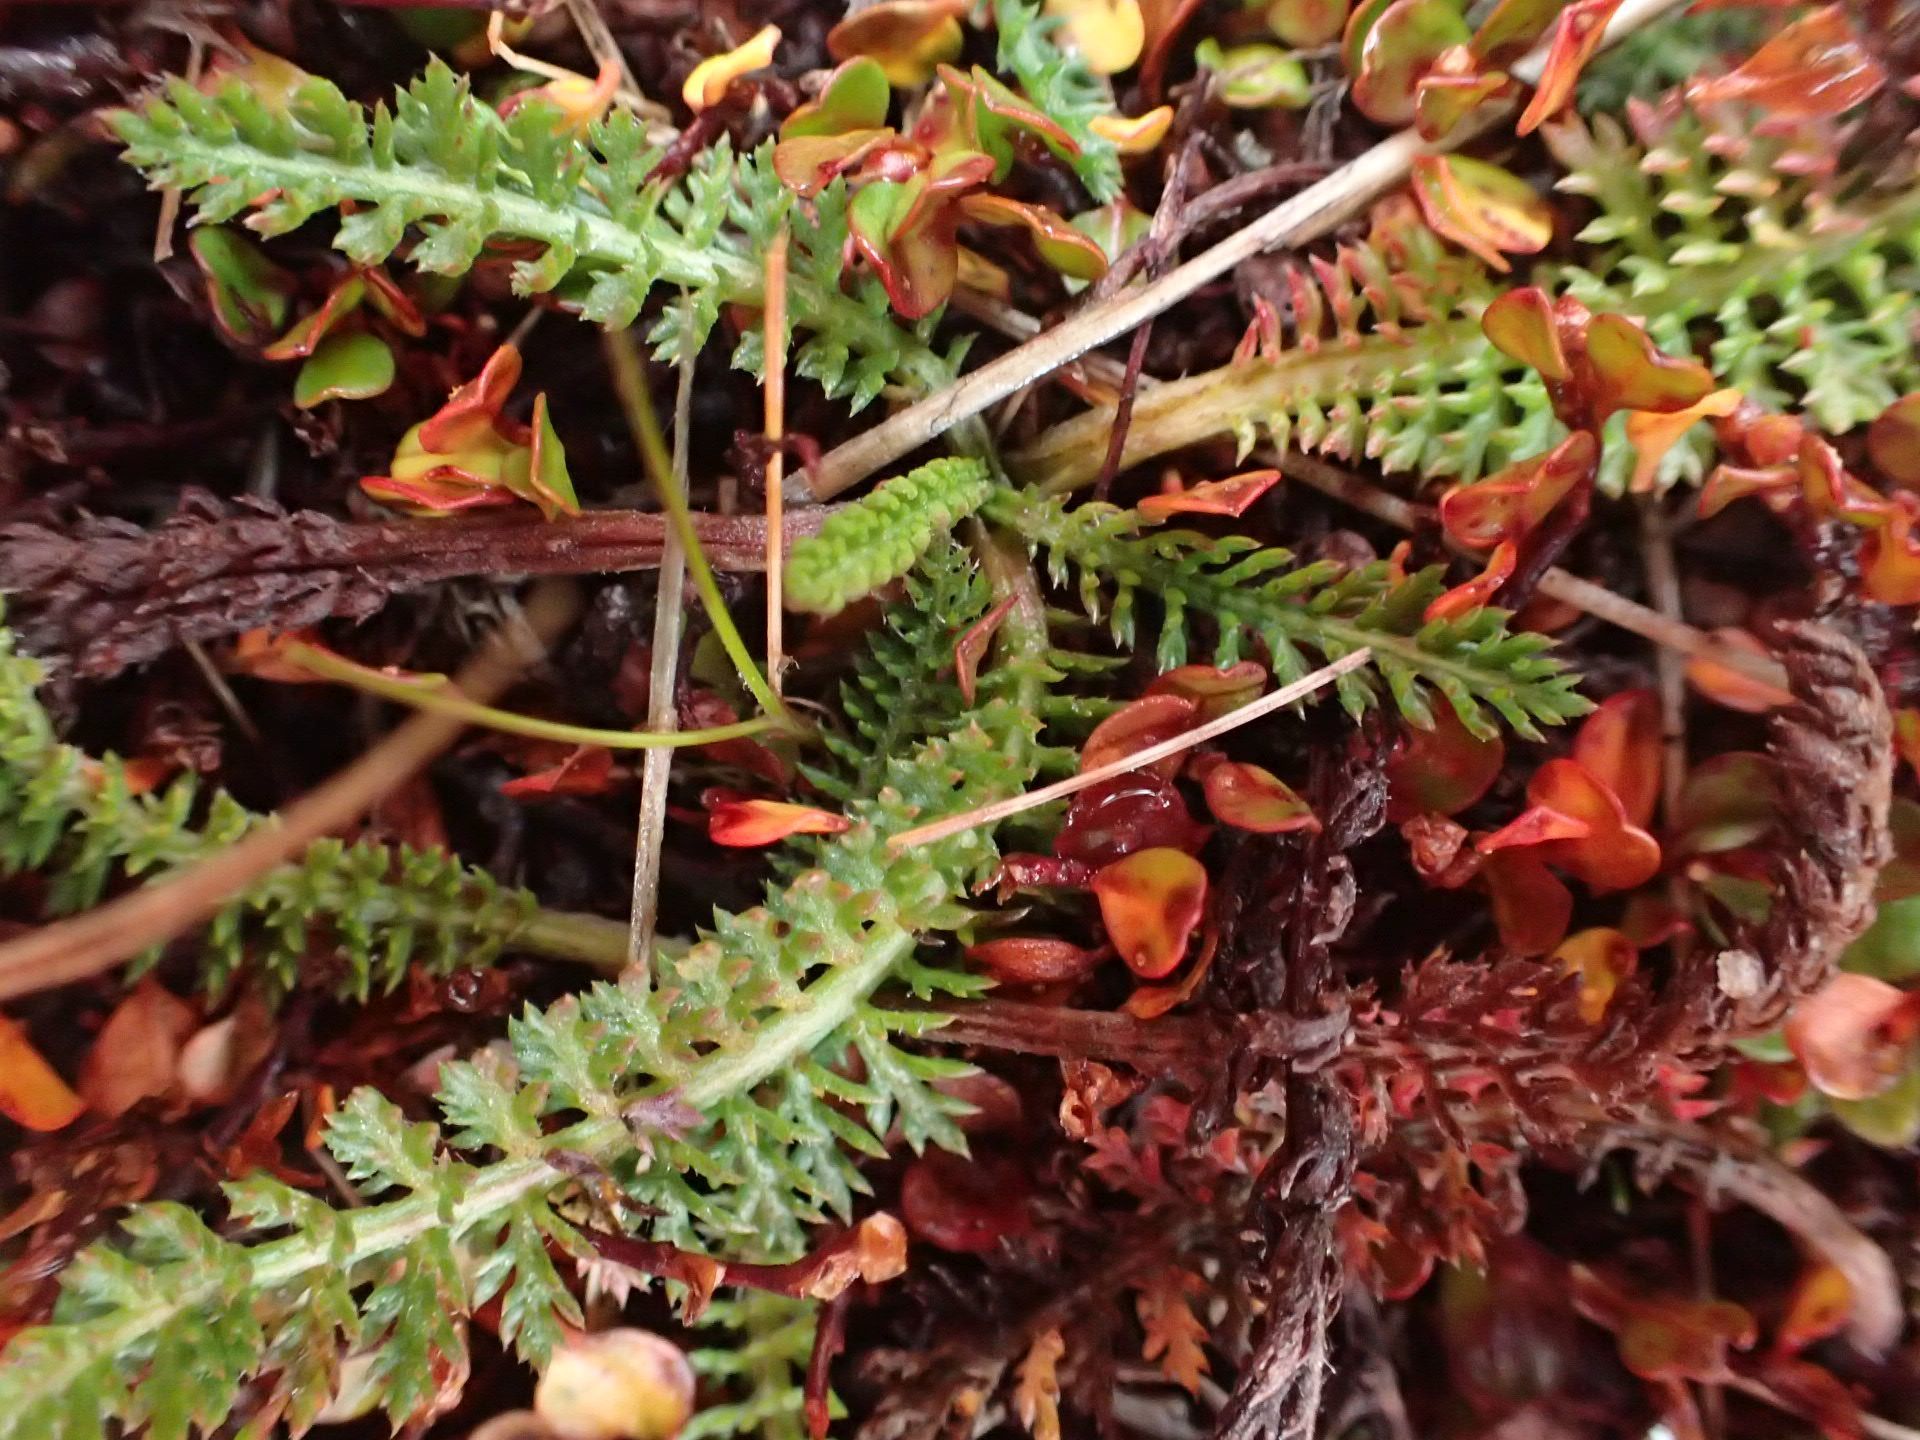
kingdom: Plantae
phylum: Tracheophyta
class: Magnoliopsida
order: Asterales
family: Asteraceae
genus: Achillea
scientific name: Achillea millefolium
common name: Yarrow
